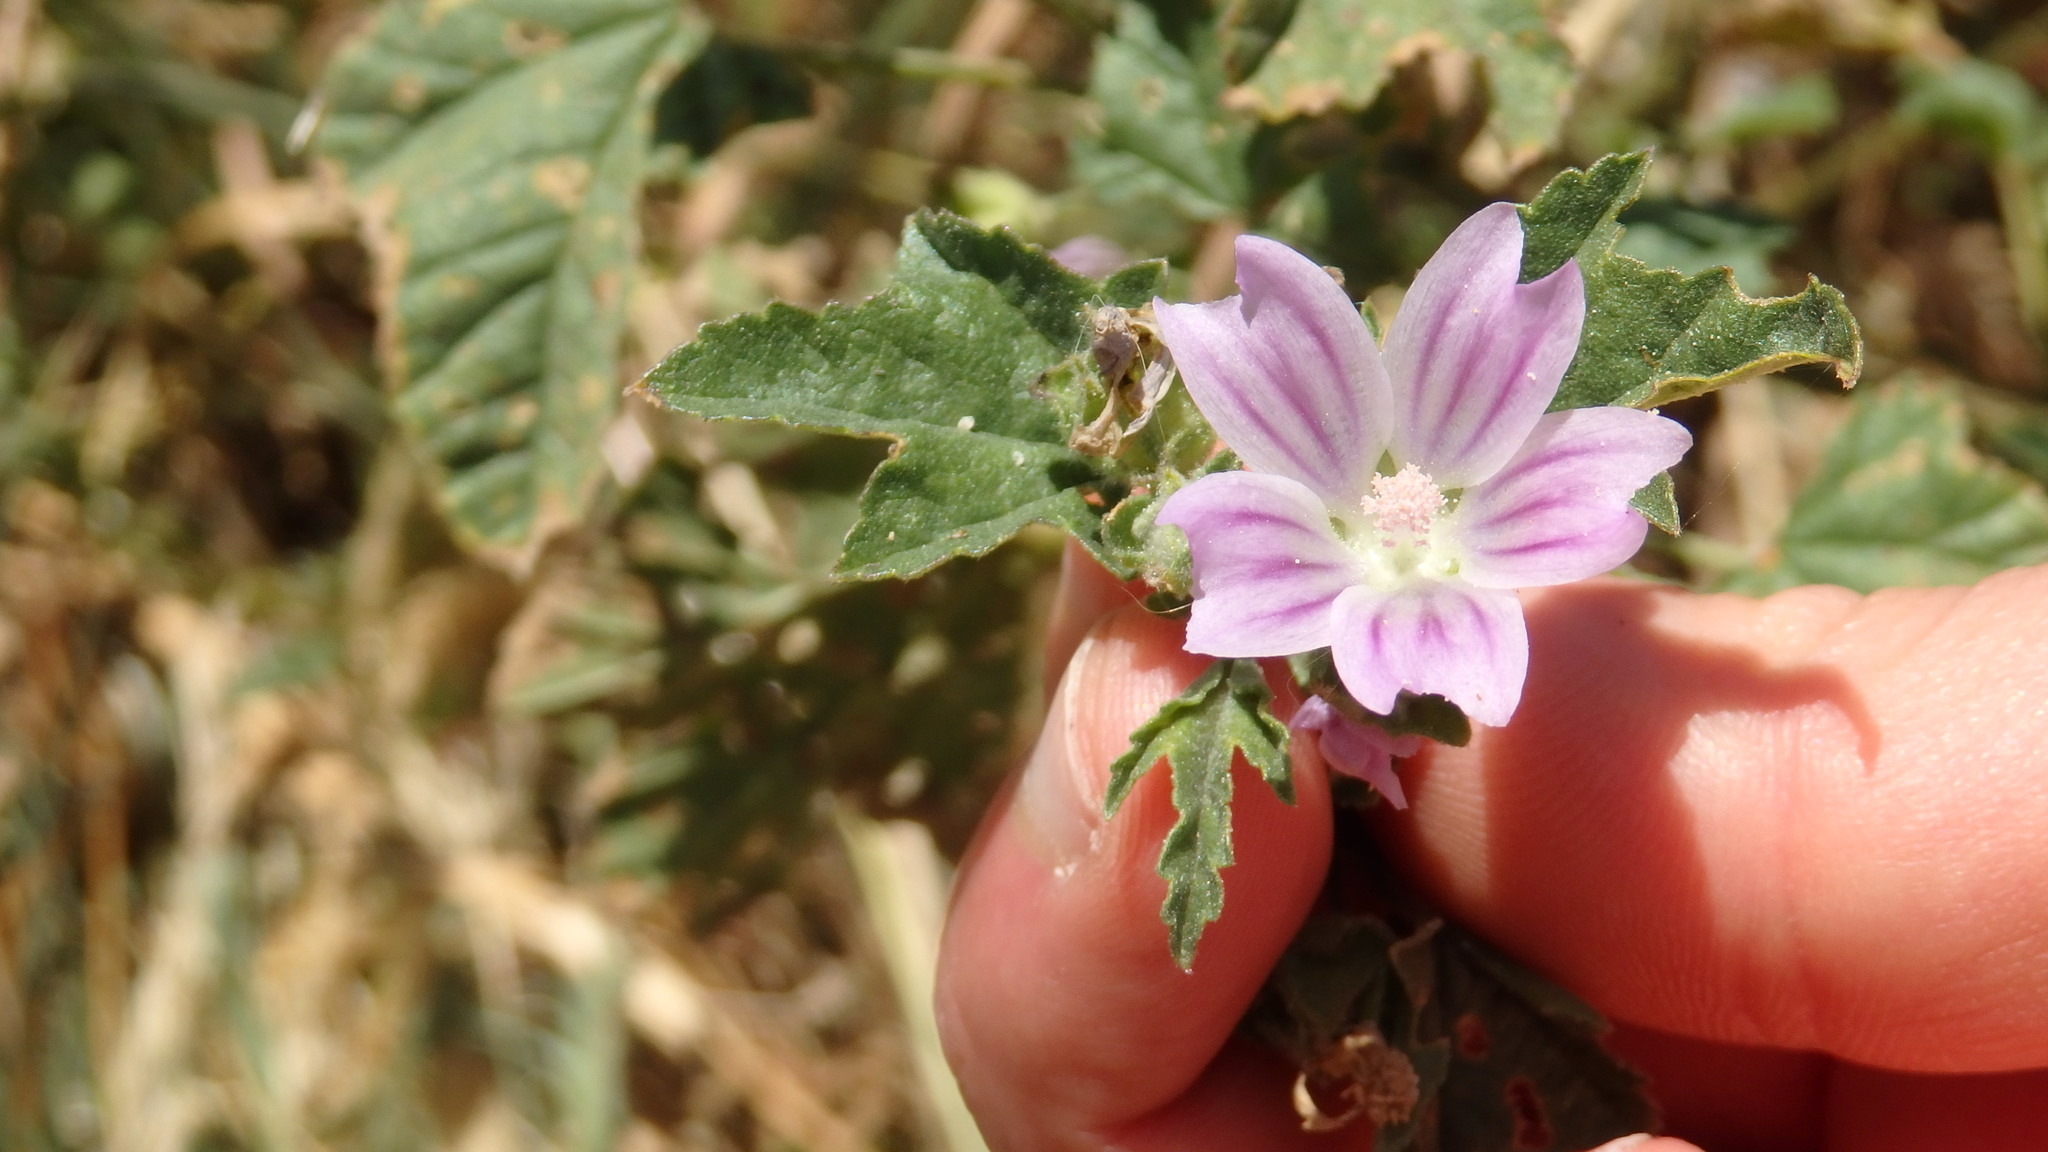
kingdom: Plantae
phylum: Tracheophyta
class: Magnoliopsida
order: Malvales
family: Malvaceae
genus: Malva
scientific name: Malva multiflora
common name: Cheeseweed
